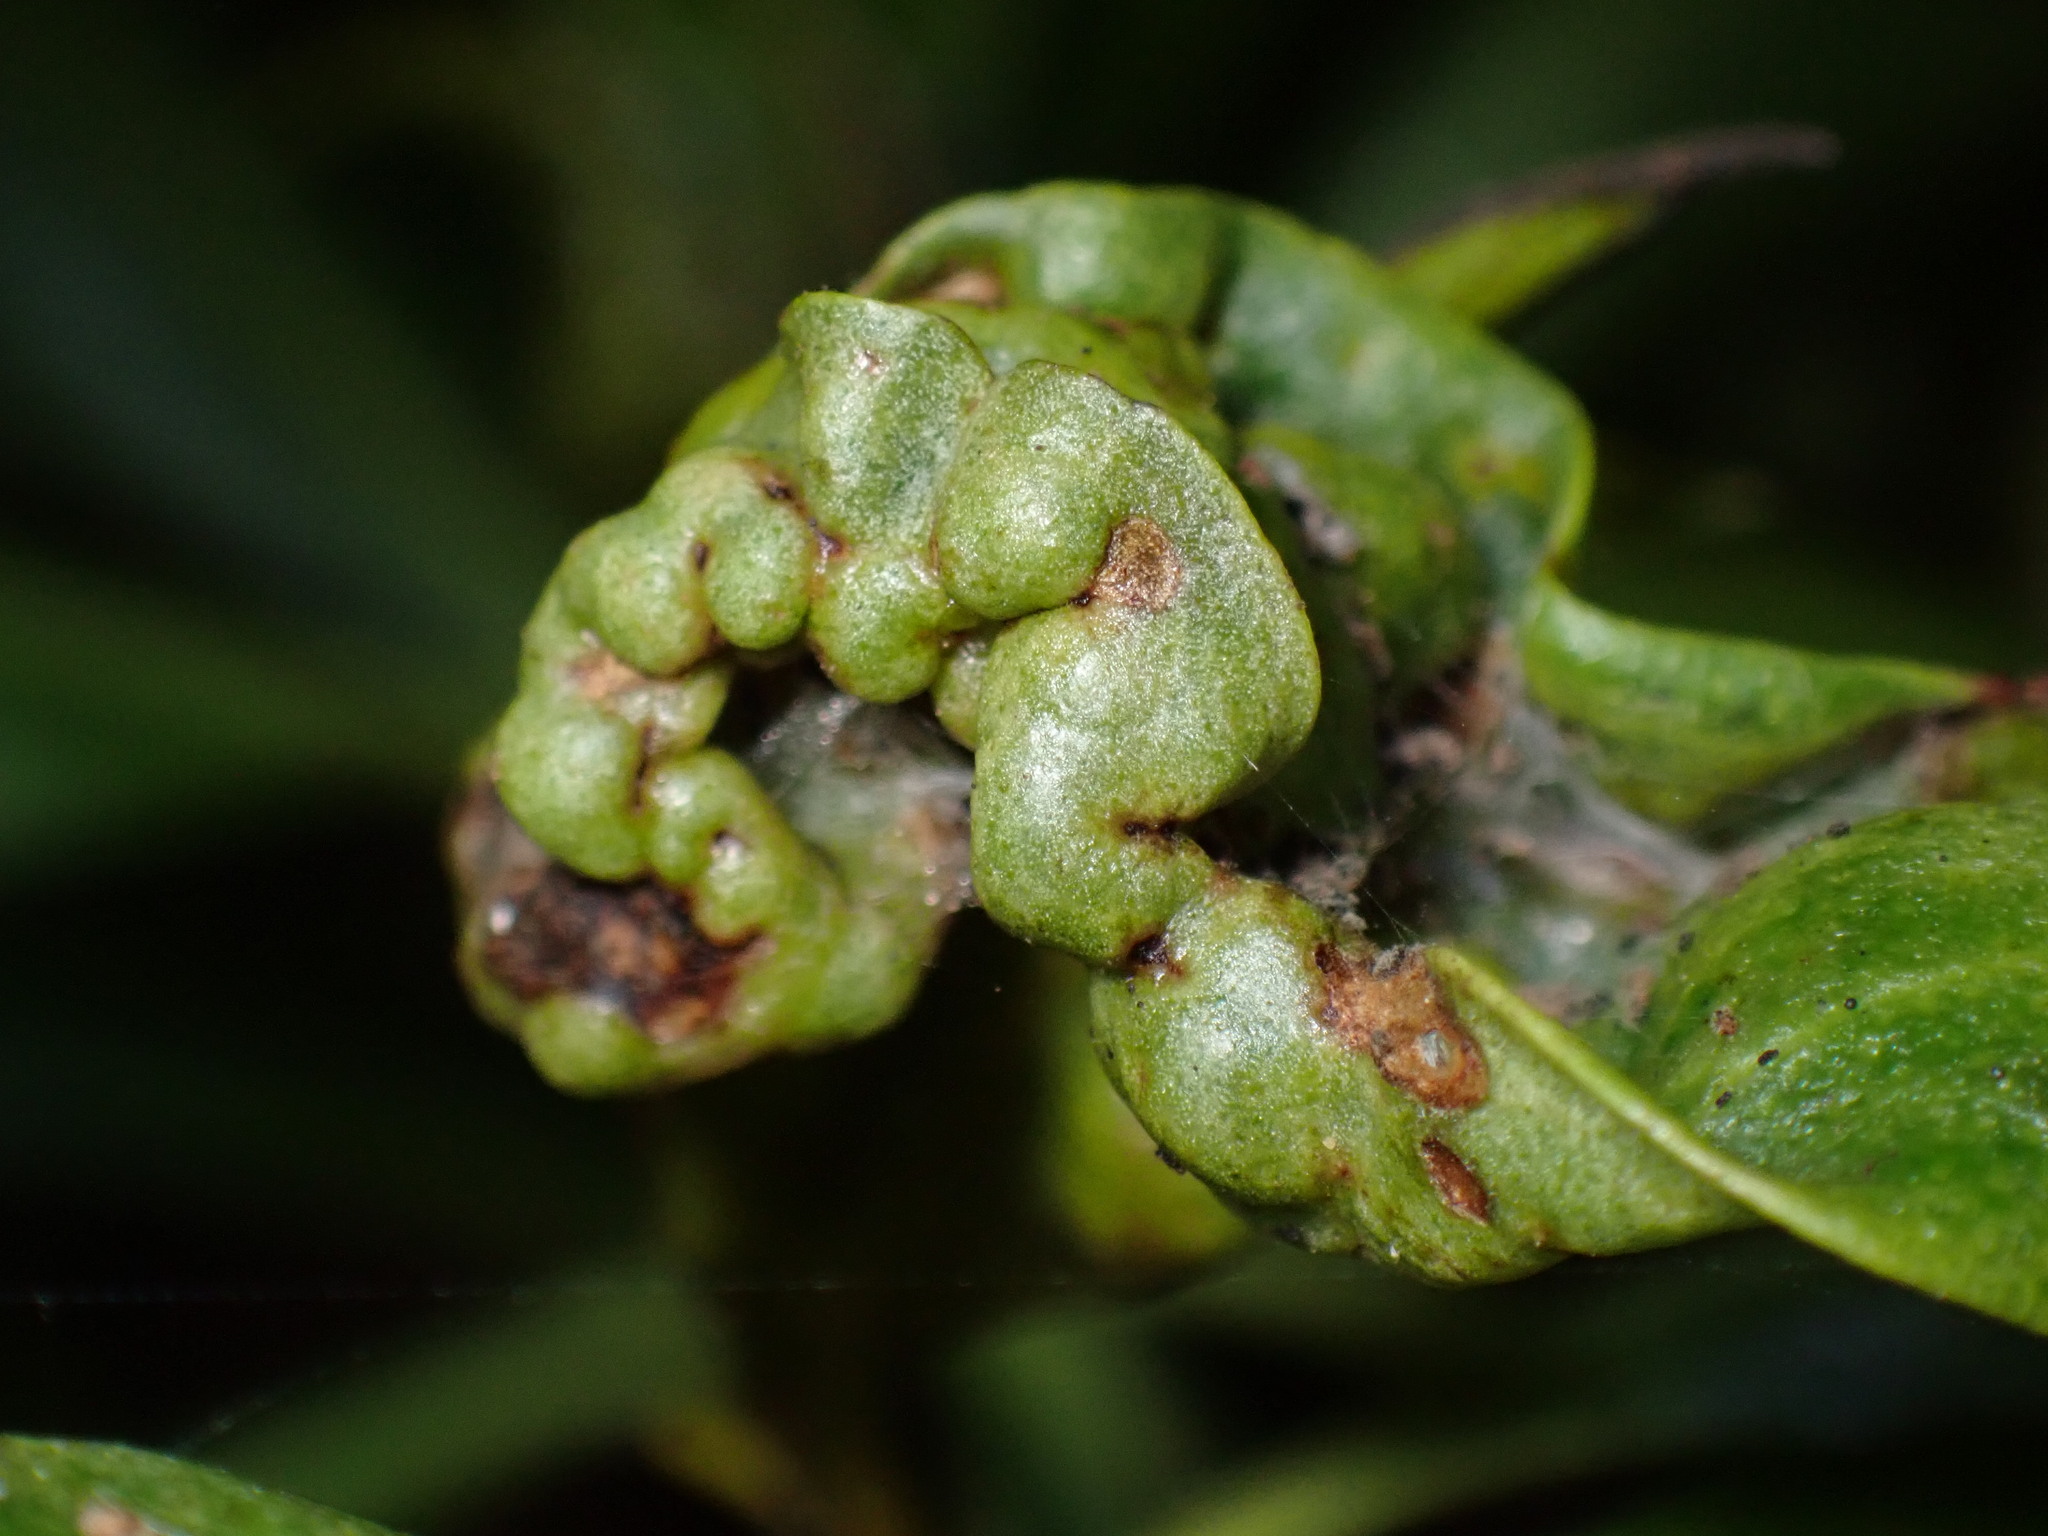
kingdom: Animalia
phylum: Arthropoda
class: Insecta
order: Thysanoptera
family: Phlaeothripidae
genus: Klambothrips
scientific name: Klambothrips myopori
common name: Myoporum thrips
